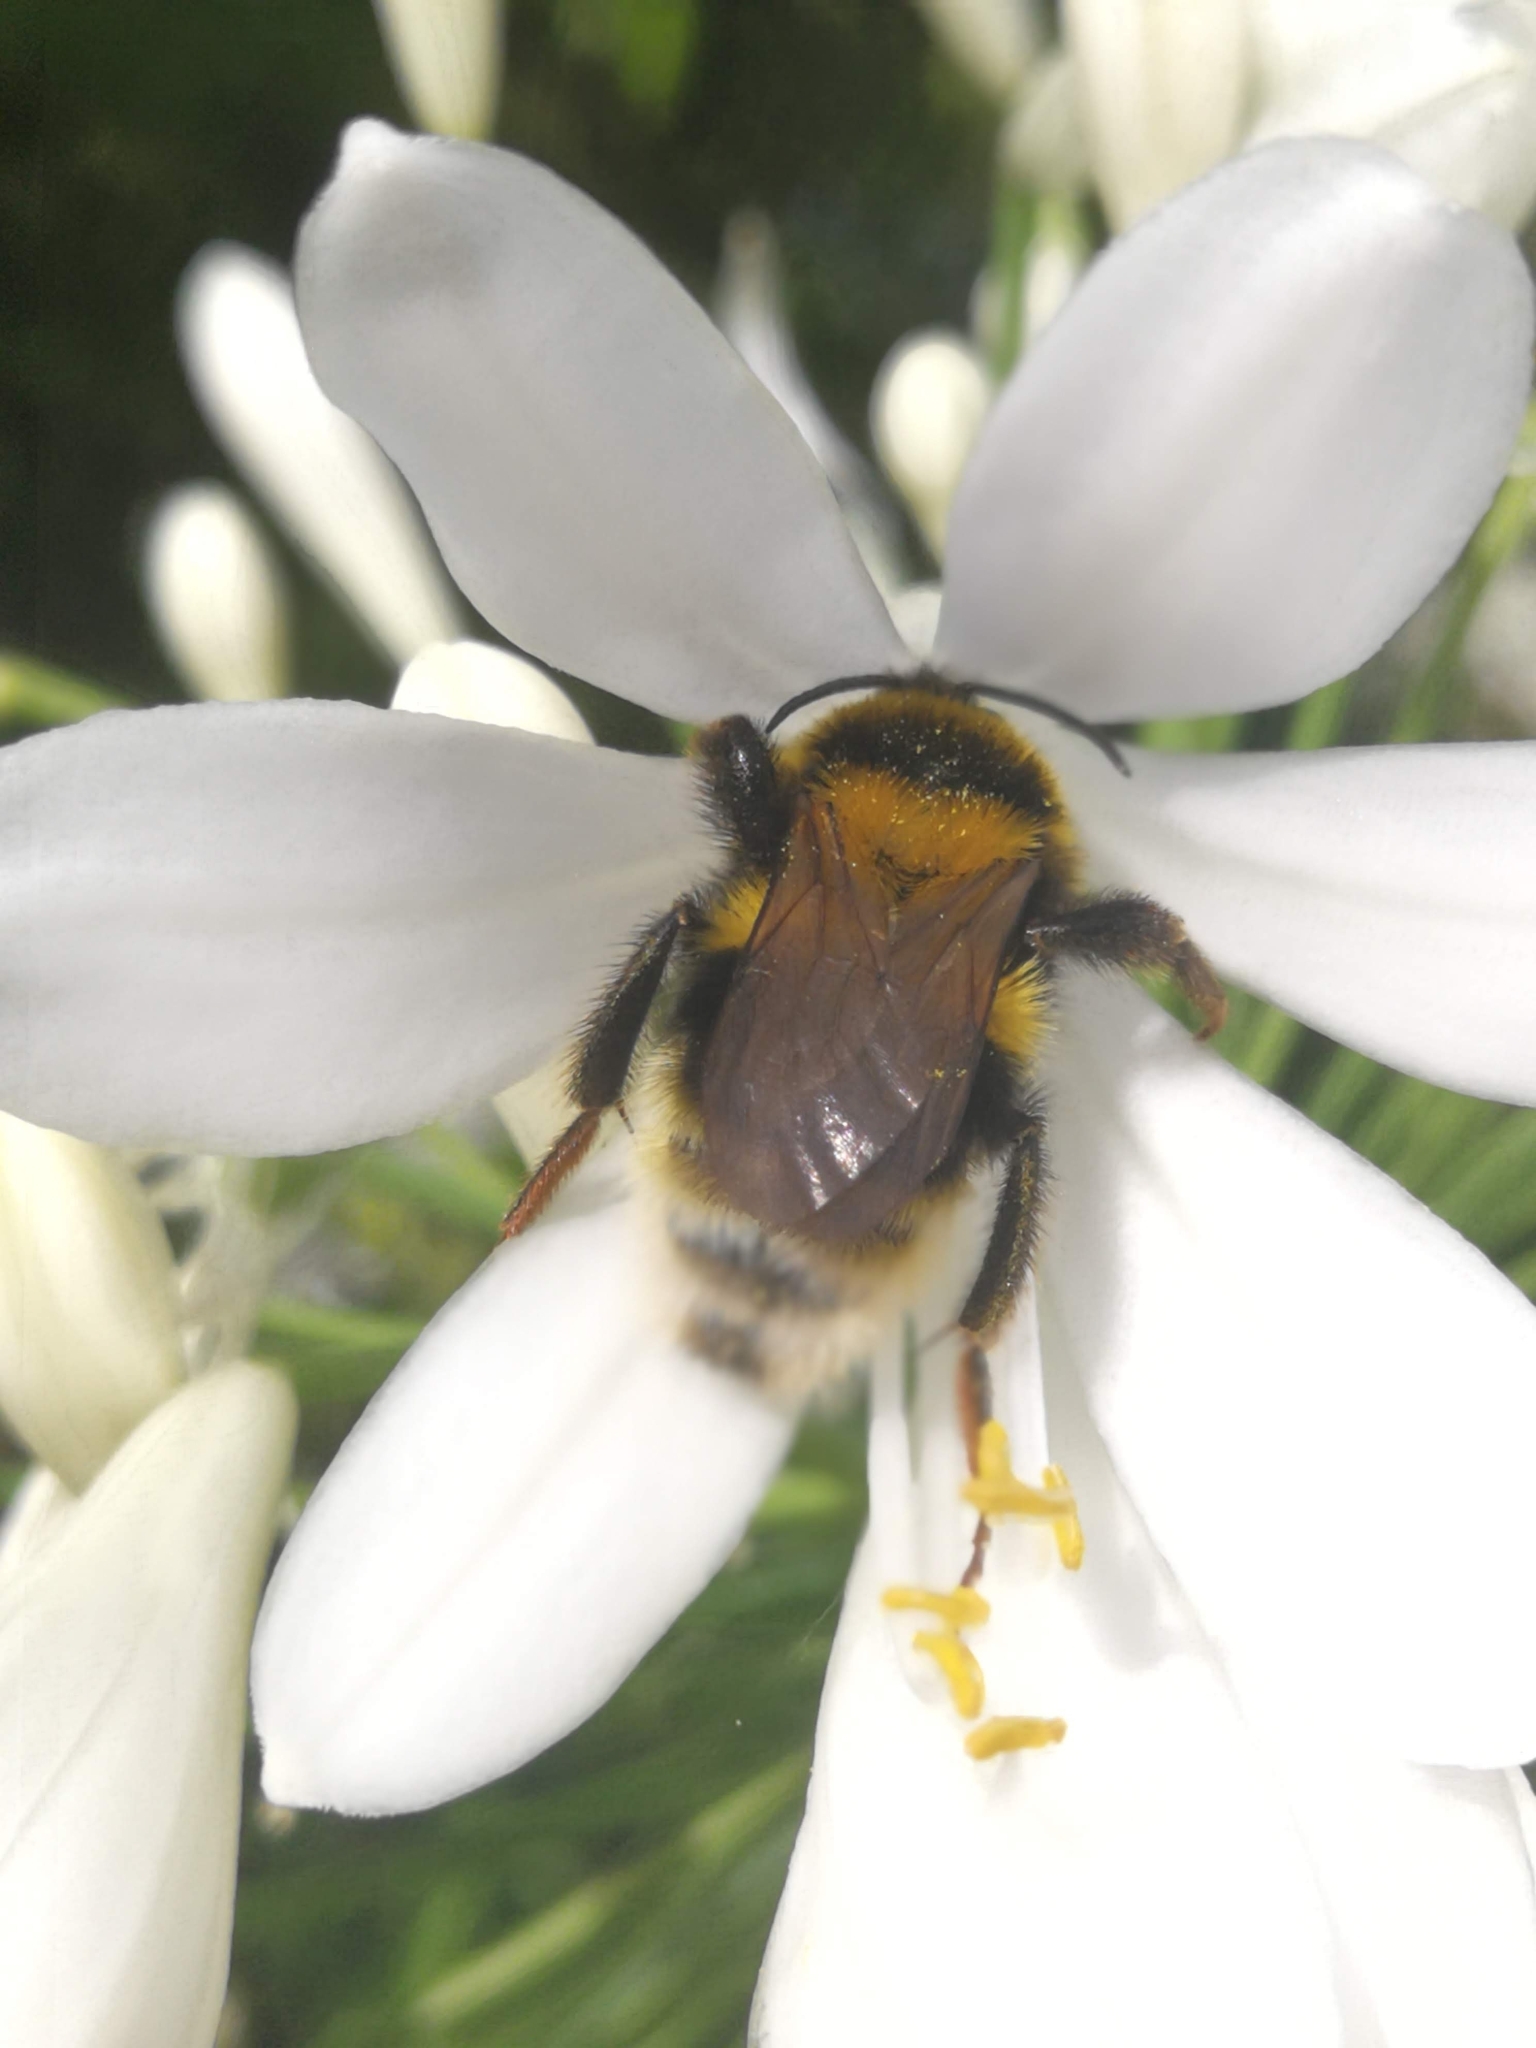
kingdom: Animalia
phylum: Arthropoda
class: Insecta
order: Hymenoptera
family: Apidae
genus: Bombus
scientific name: Bombus ruderatus
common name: Large garden bumblebee
